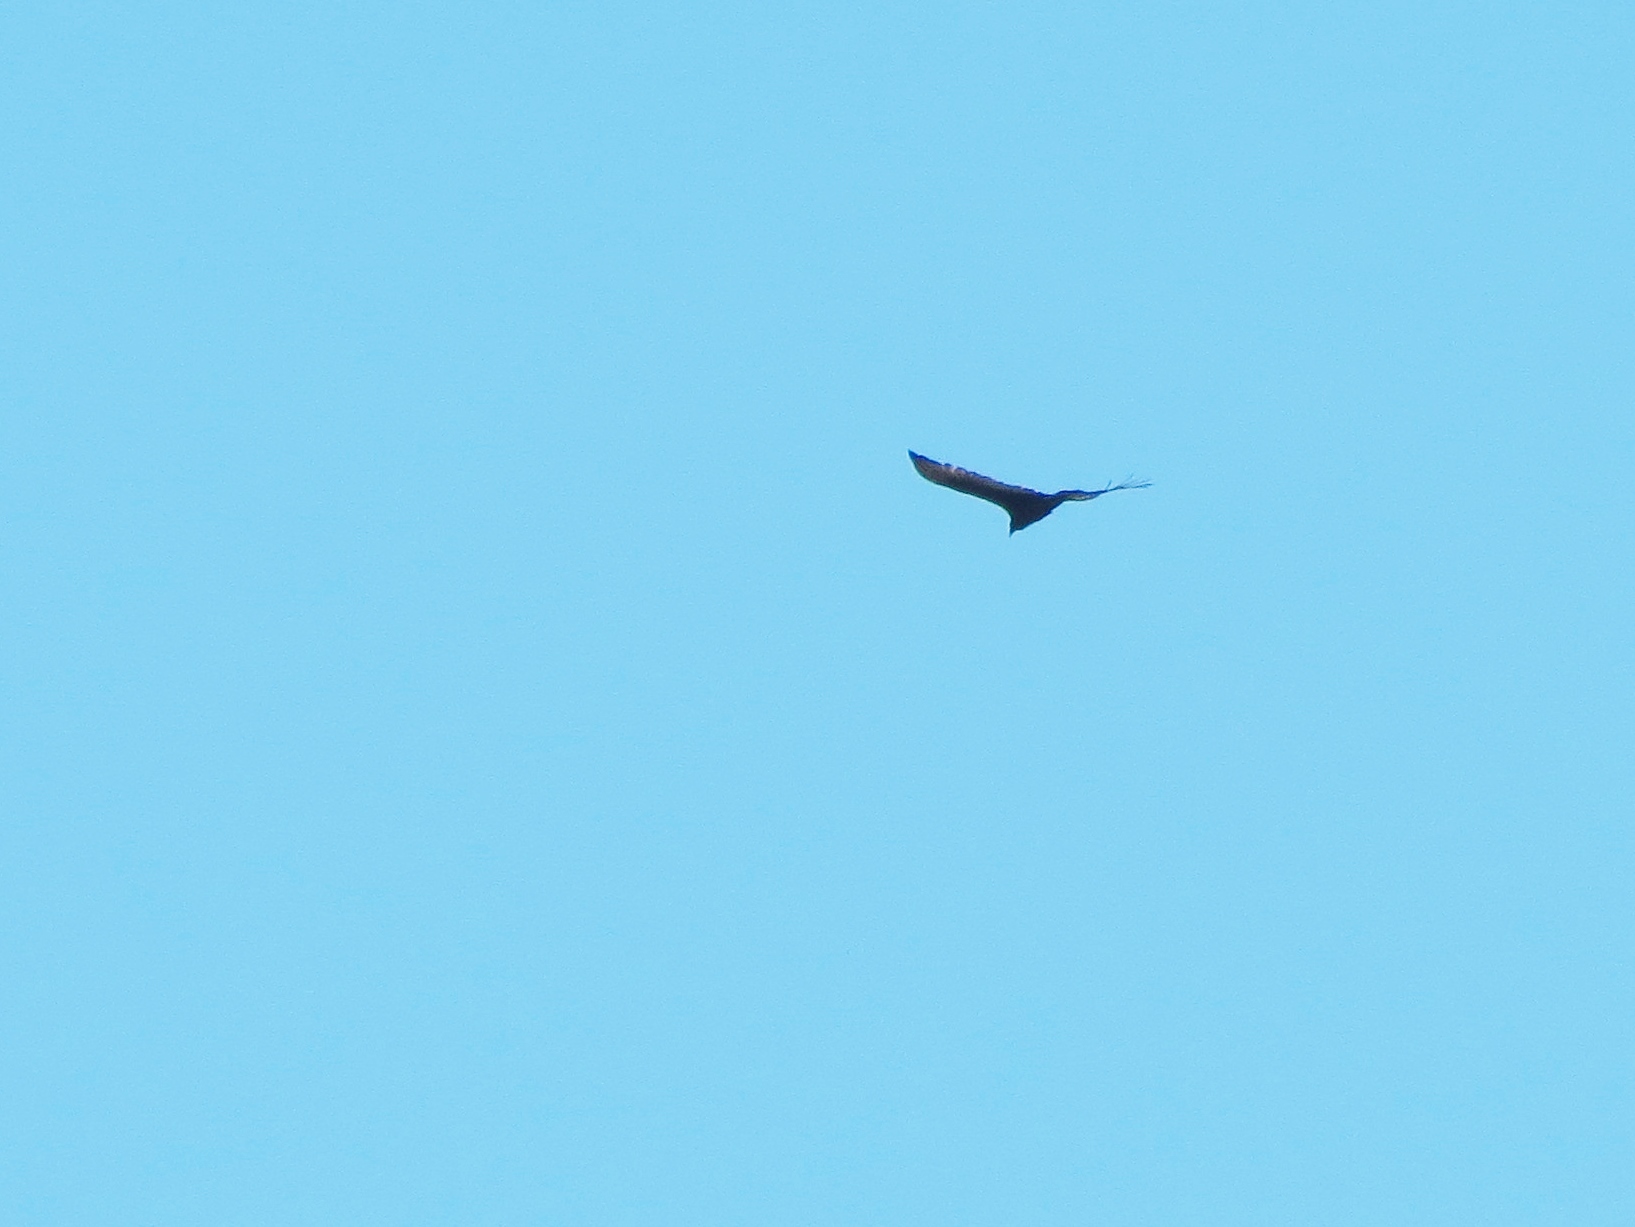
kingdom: Animalia
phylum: Chordata
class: Aves
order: Accipitriformes
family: Cathartidae
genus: Cathartes
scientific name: Cathartes aura
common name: Turkey vulture
